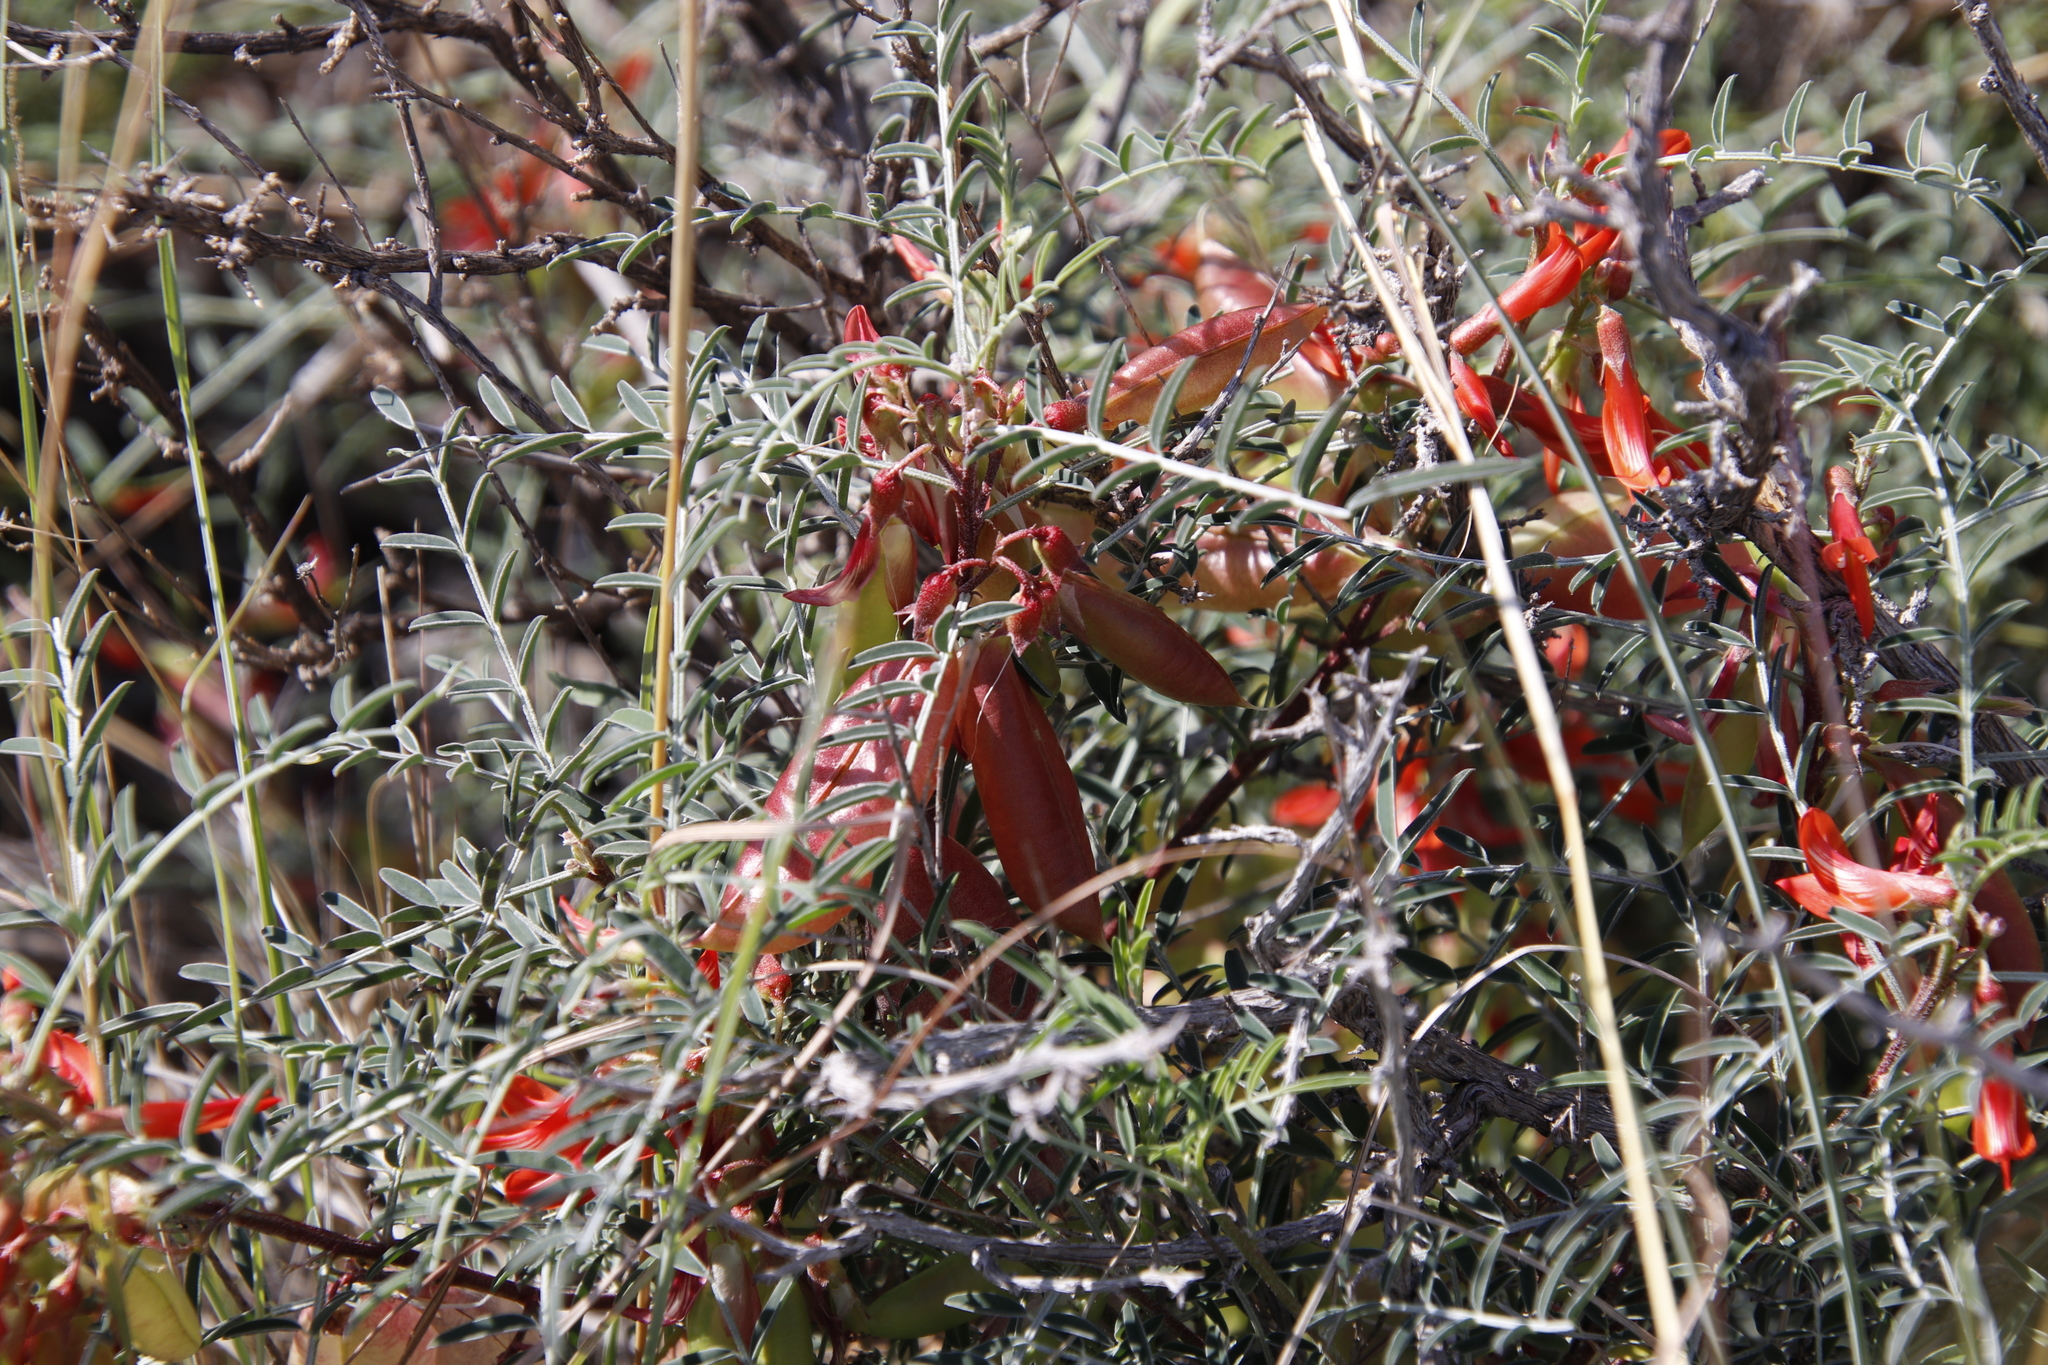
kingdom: Plantae
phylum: Tracheophyta
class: Magnoliopsida
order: Fabales
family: Fabaceae
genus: Lessertia
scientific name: Lessertia frutescens
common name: Balloon-pea
